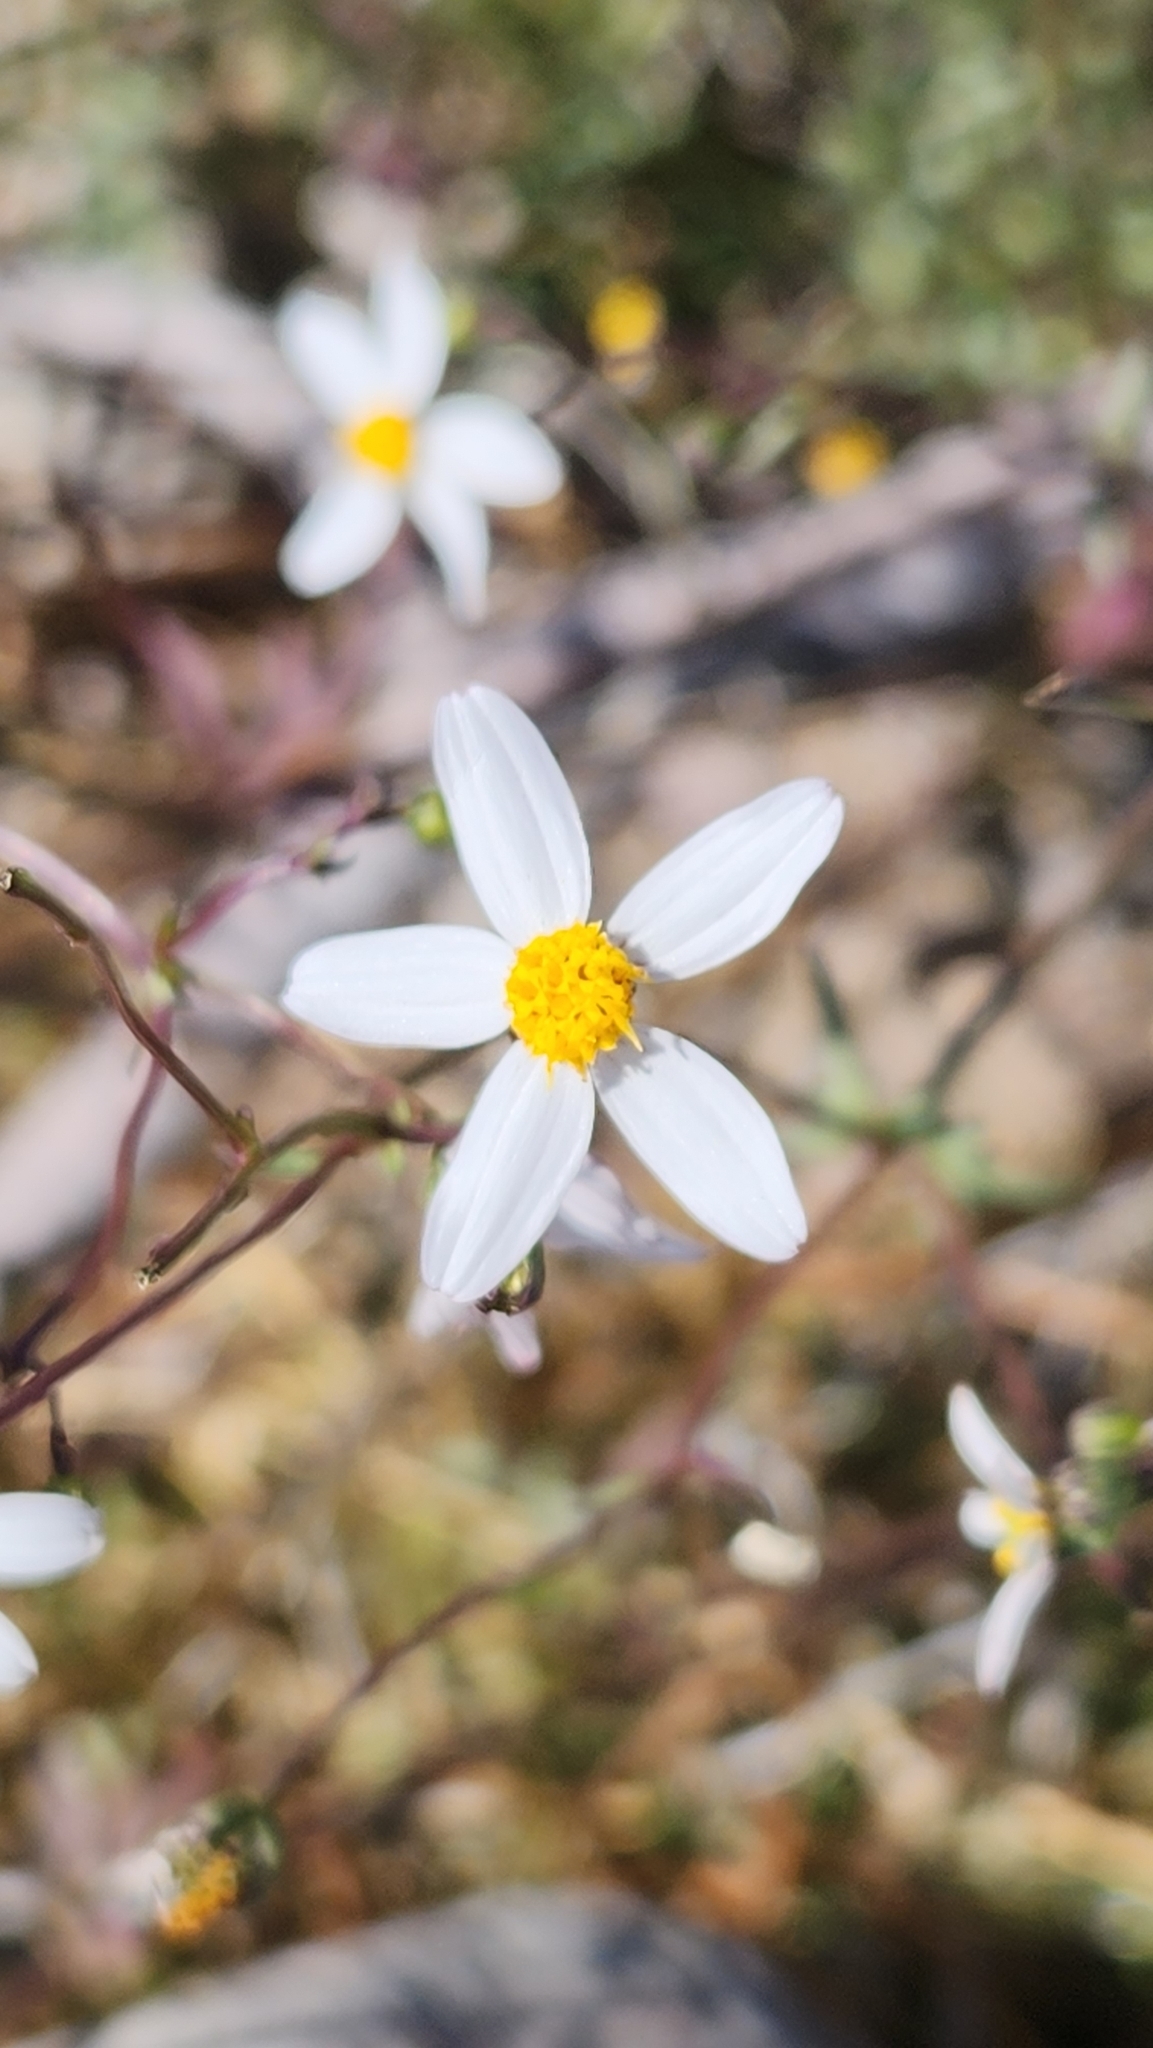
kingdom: Plantae
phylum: Tracheophyta
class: Magnoliopsida
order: Asterales
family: Asteraceae
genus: Coreocarpus
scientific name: Coreocarpus parthenioides
